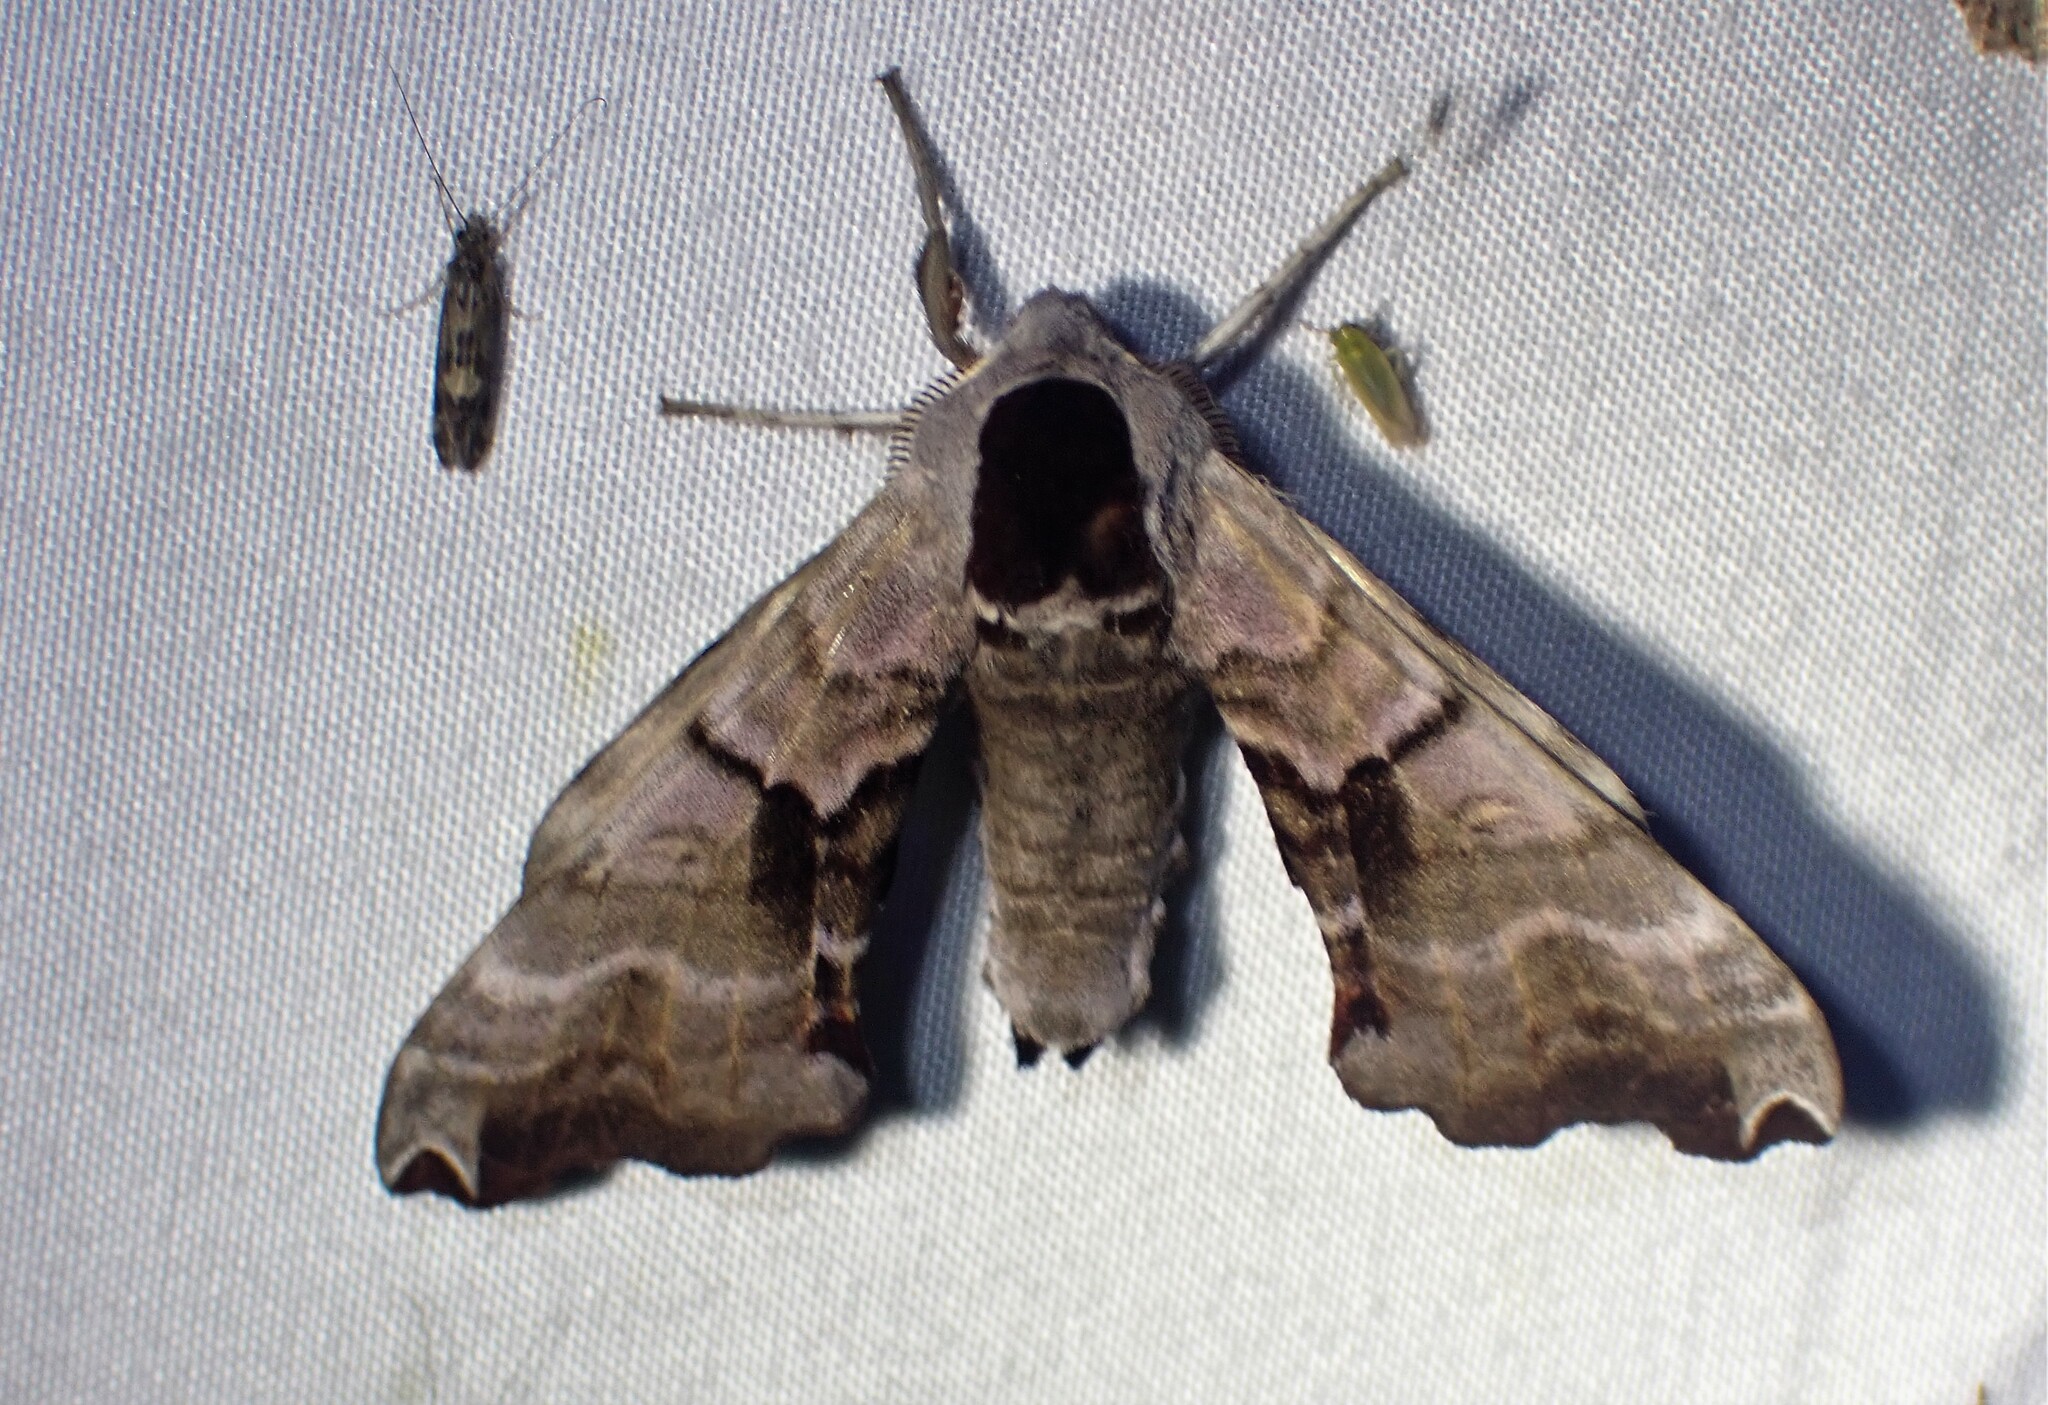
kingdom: Animalia
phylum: Arthropoda
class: Insecta
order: Lepidoptera
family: Sphingidae
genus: Smerinthus
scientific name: Smerinthus jamaicensis
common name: Twin spotted sphinx
